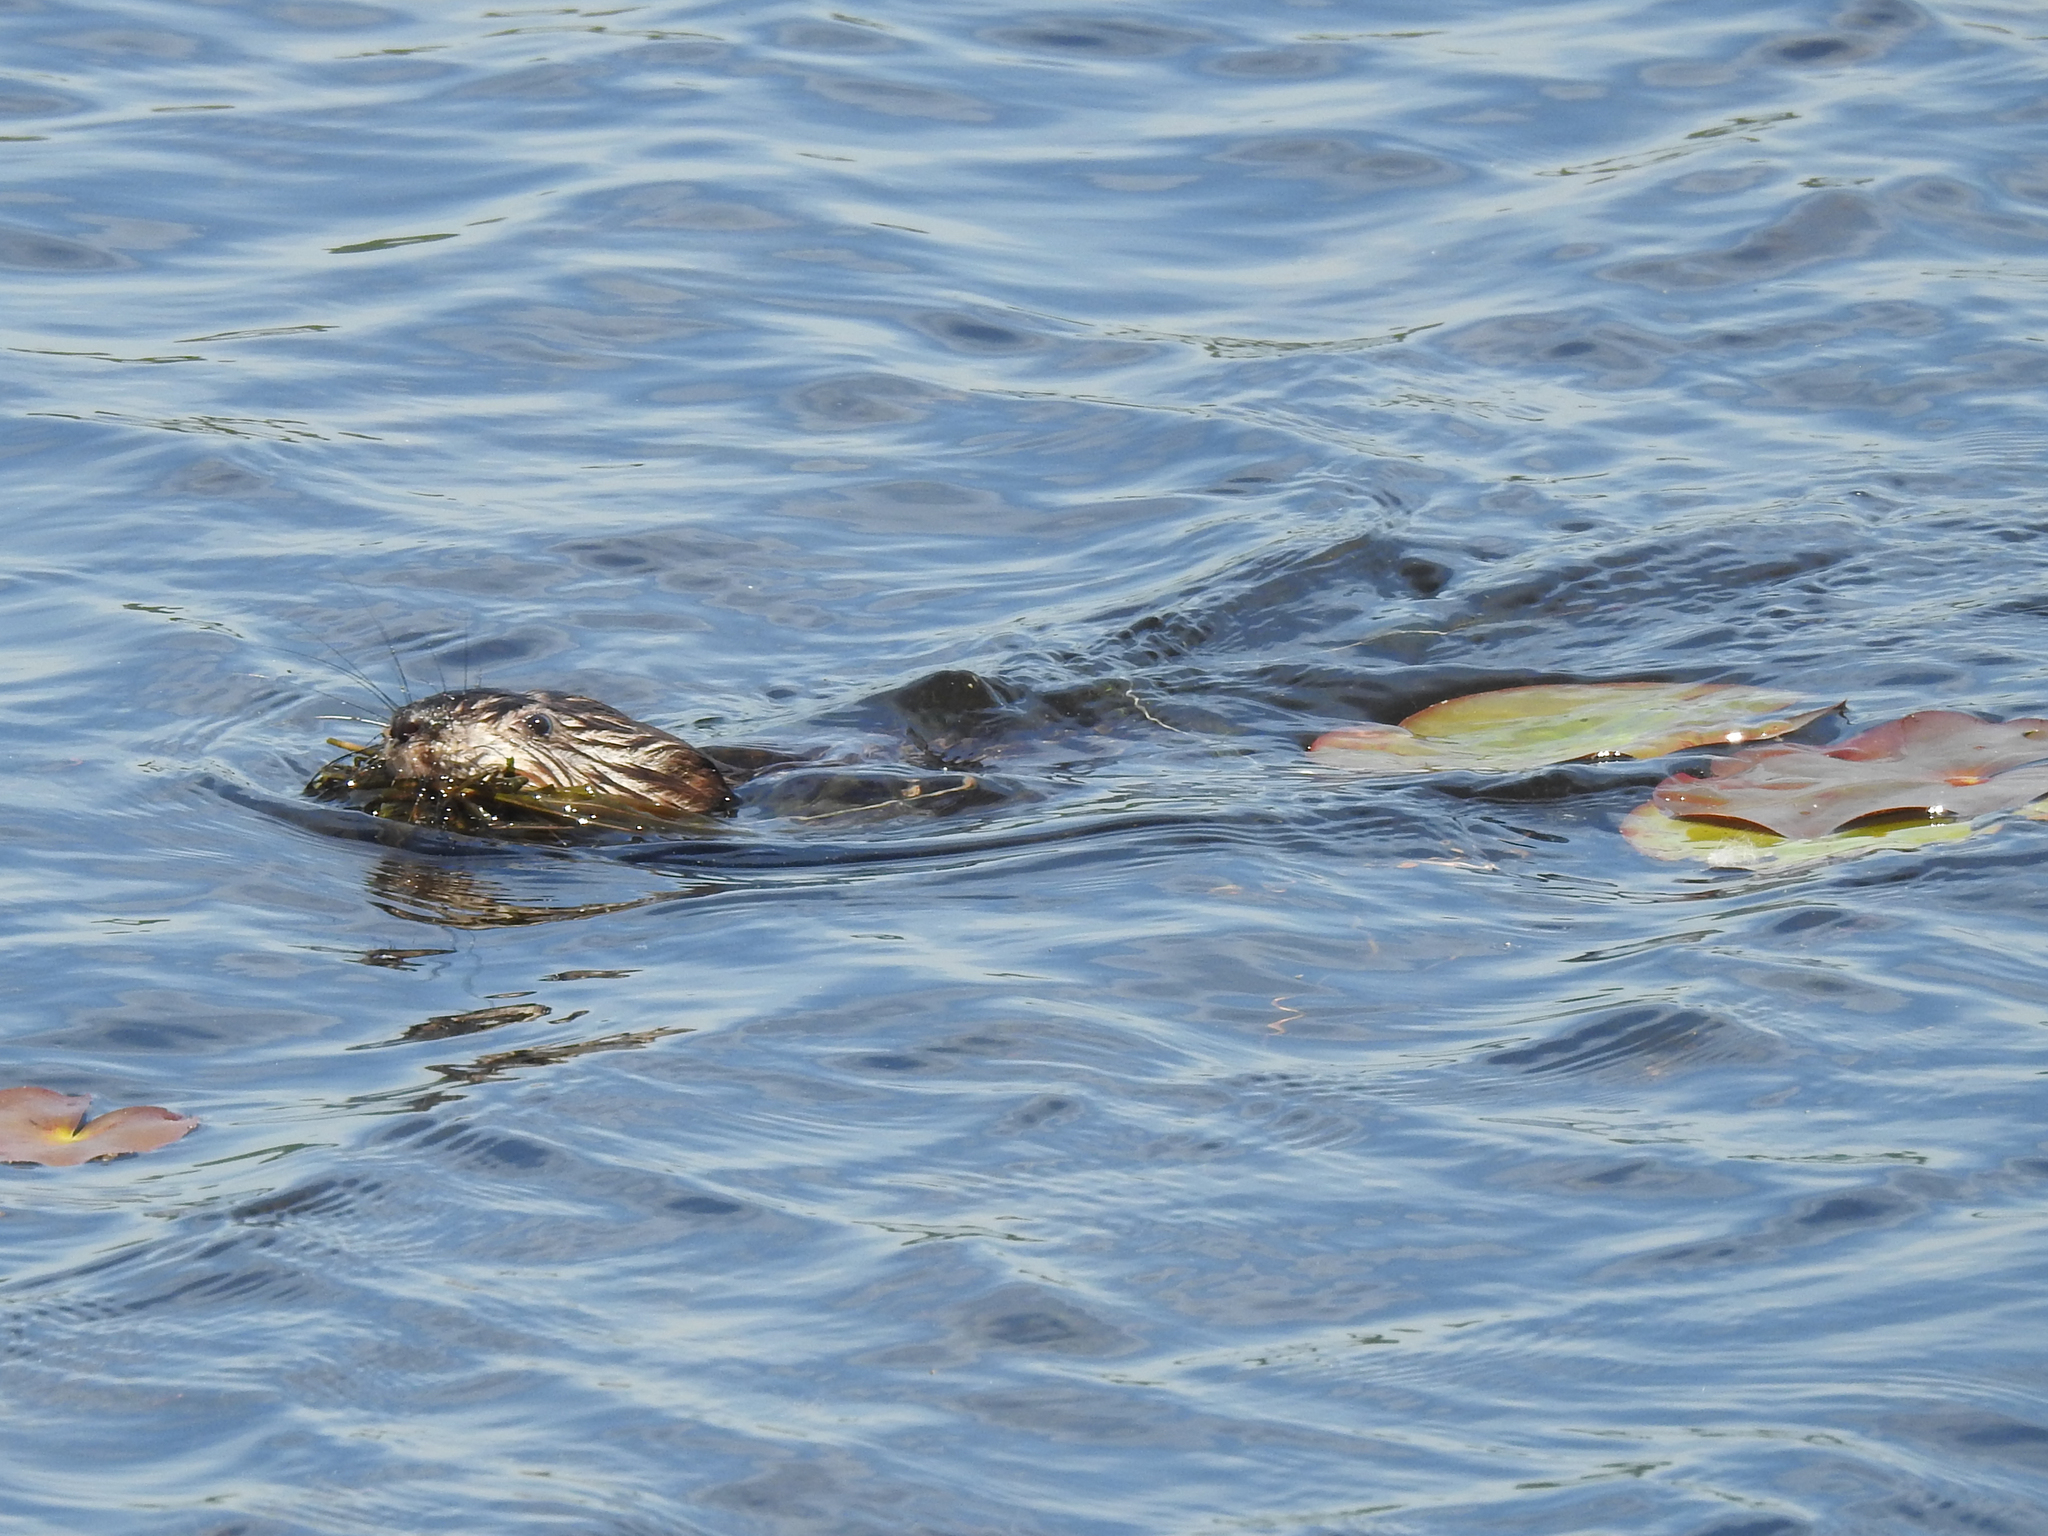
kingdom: Animalia
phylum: Chordata
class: Mammalia
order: Rodentia
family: Cricetidae
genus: Ondatra
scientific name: Ondatra zibethicus
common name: Muskrat
